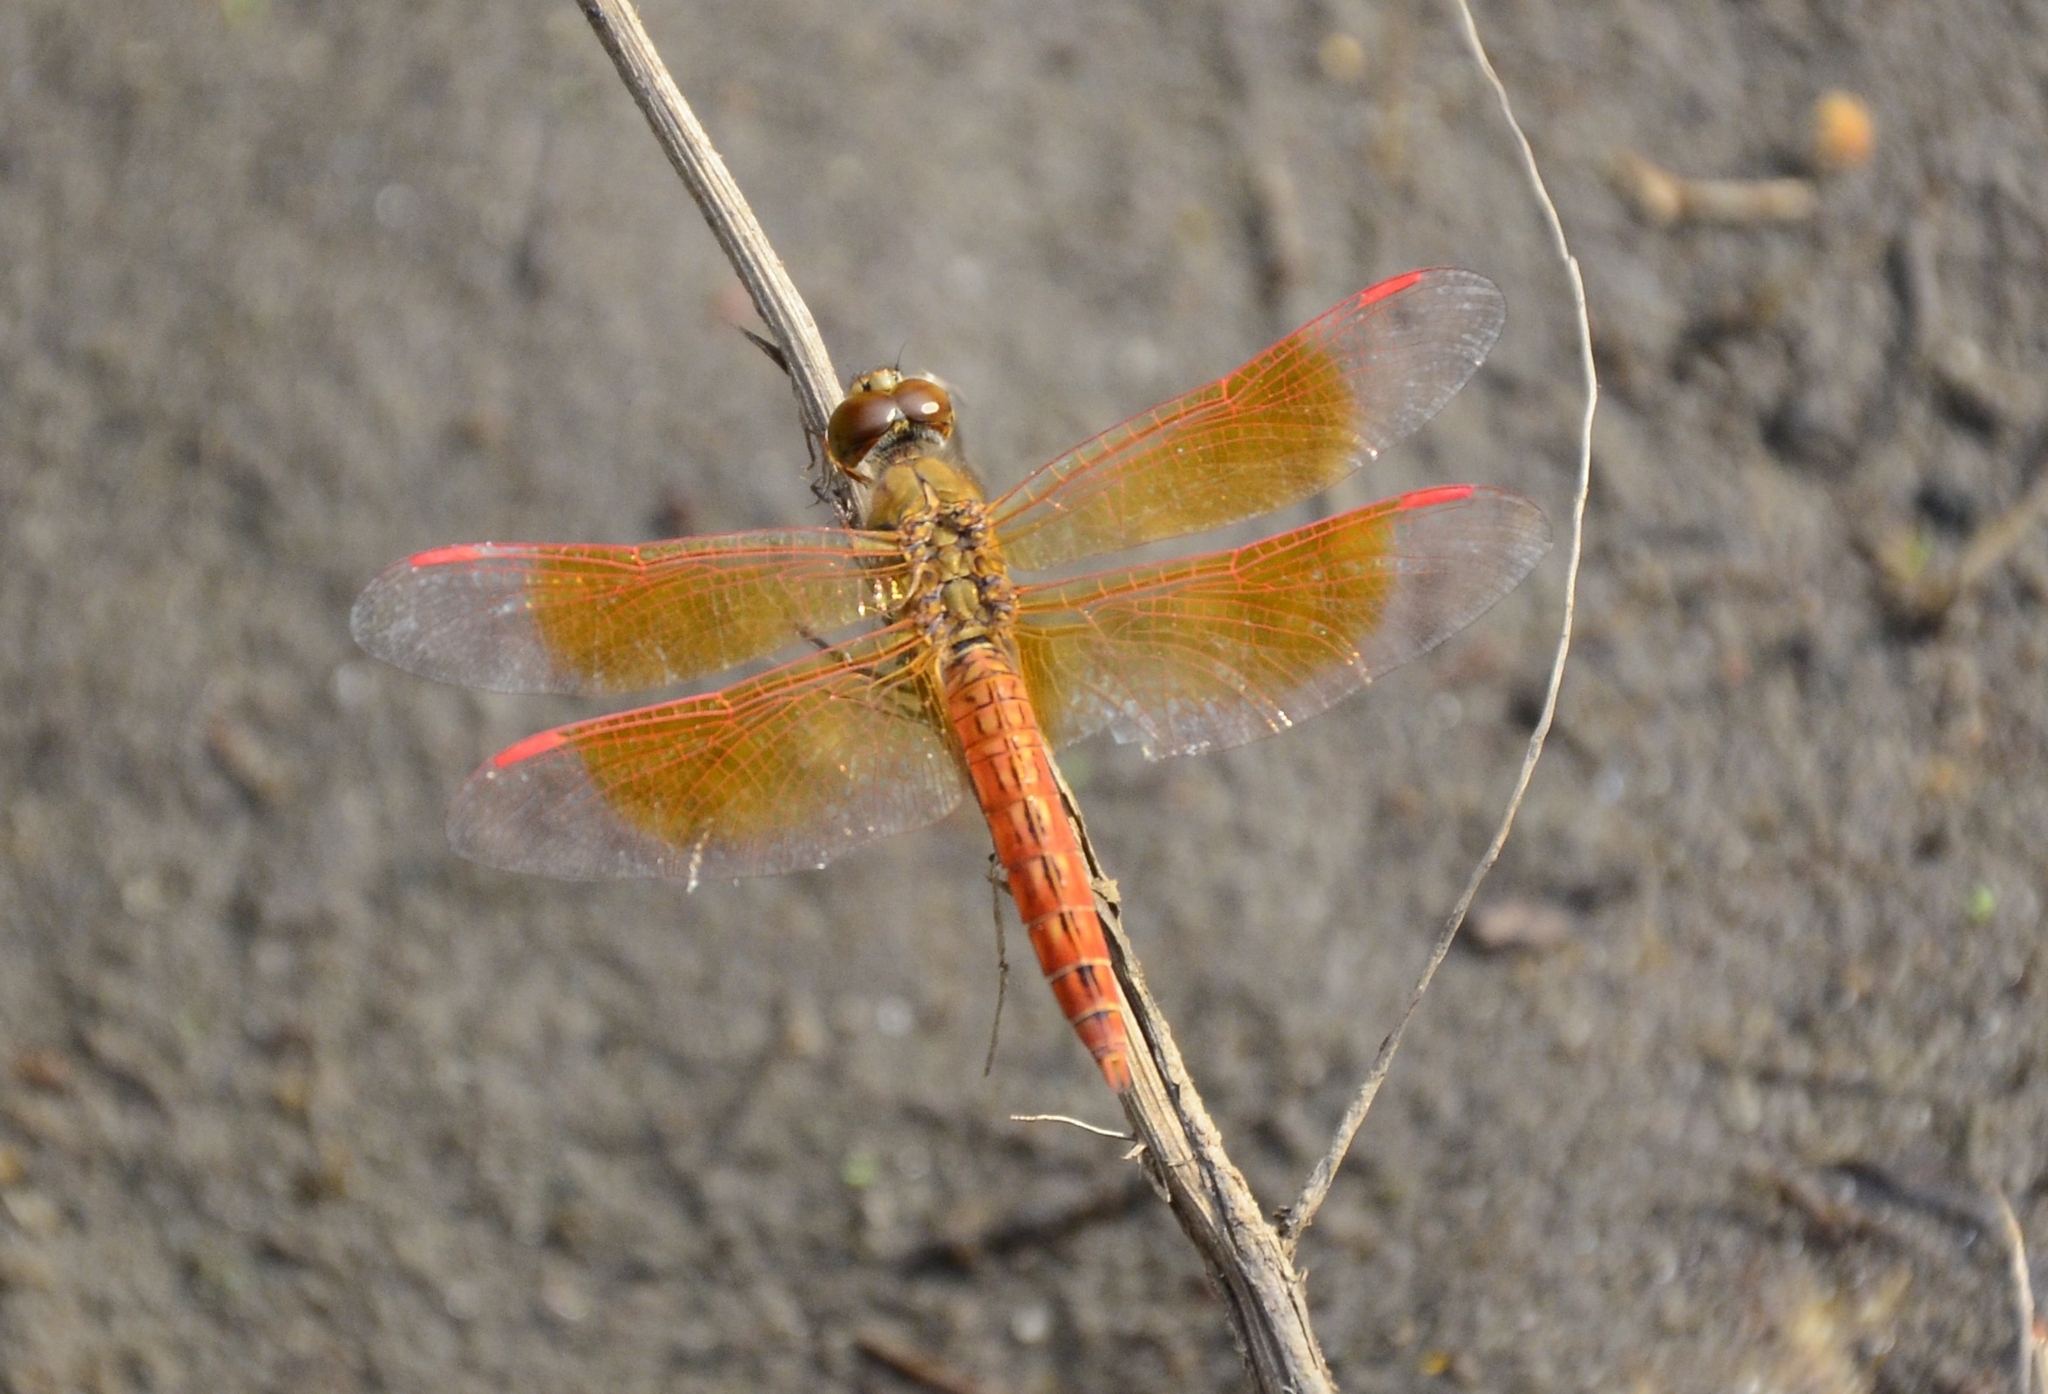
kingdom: Animalia
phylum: Arthropoda
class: Insecta
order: Odonata
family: Libellulidae
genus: Brachythemis
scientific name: Brachythemis contaminata
